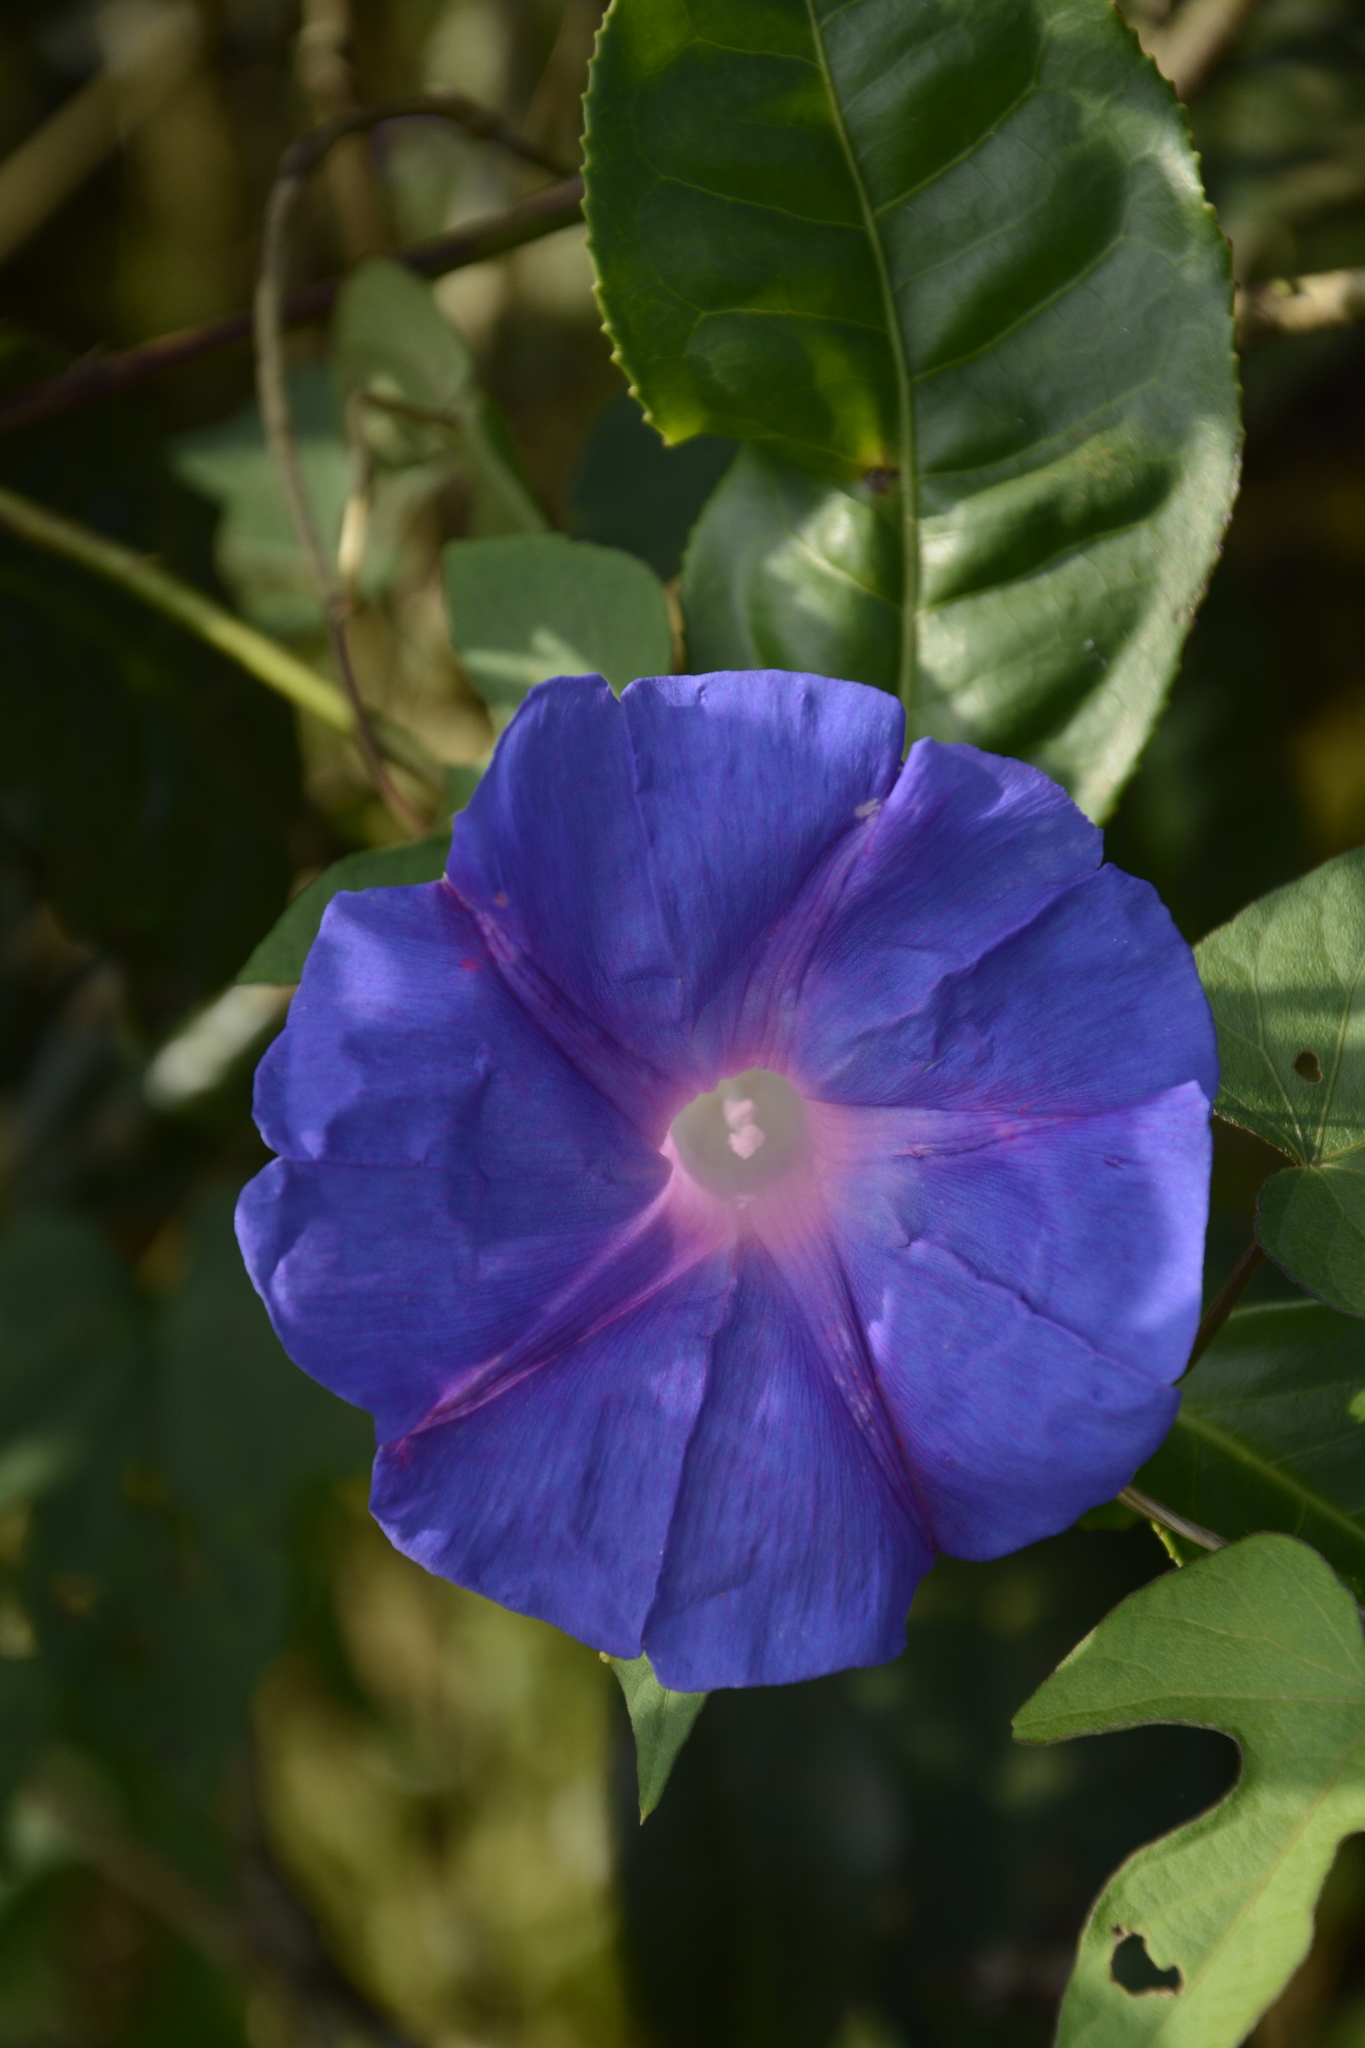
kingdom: Plantae
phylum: Tracheophyta
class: Magnoliopsida
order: Solanales
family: Convolvulaceae
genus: Ipomoea
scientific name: Ipomoea indica
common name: Blue dawnflower
